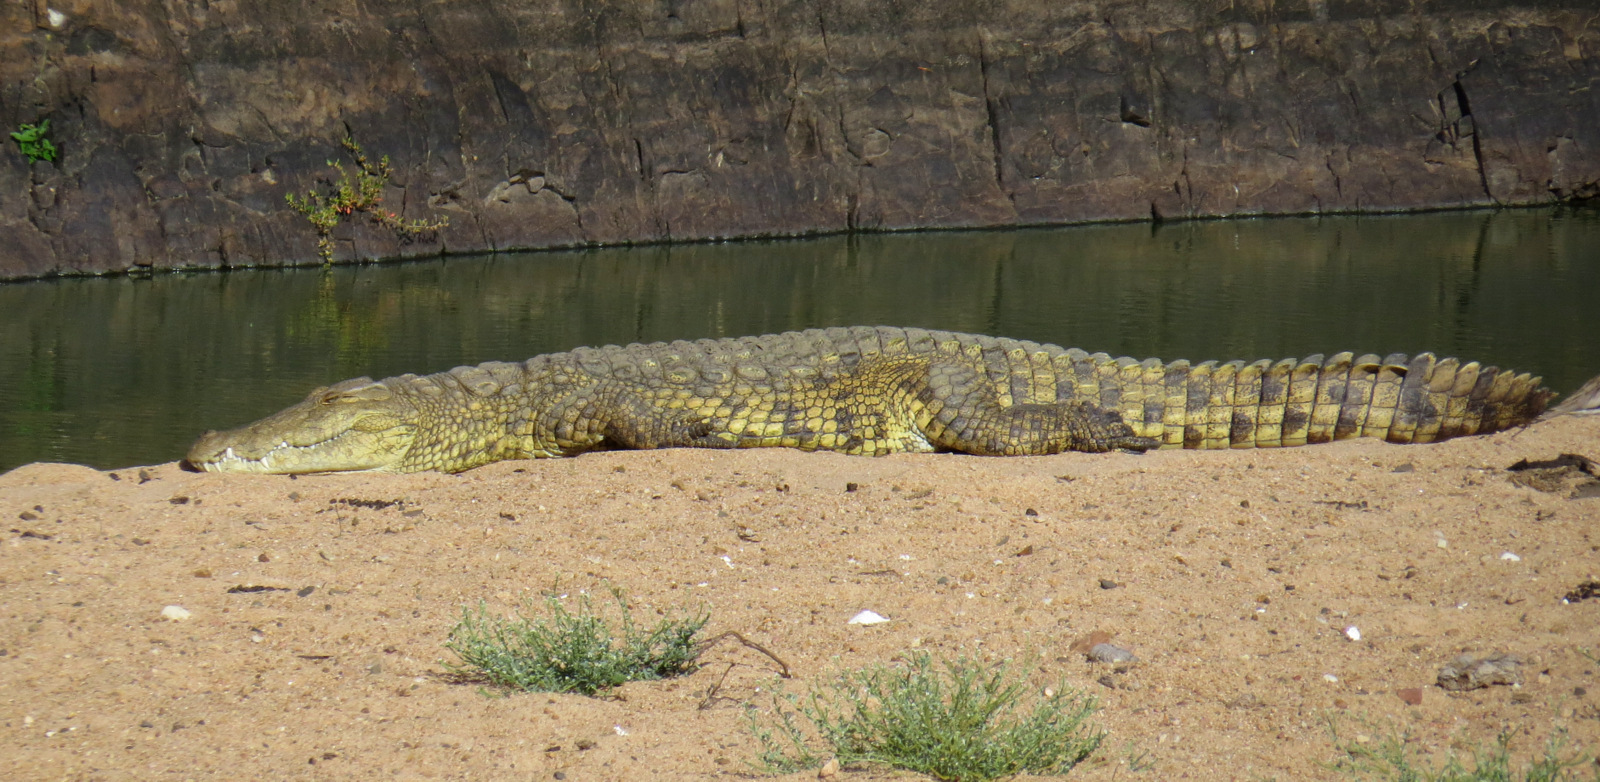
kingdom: Animalia
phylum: Chordata
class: Crocodylia
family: Crocodylidae
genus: Crocodylus
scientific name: Crocodylus niloticus
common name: Nile crocodile
